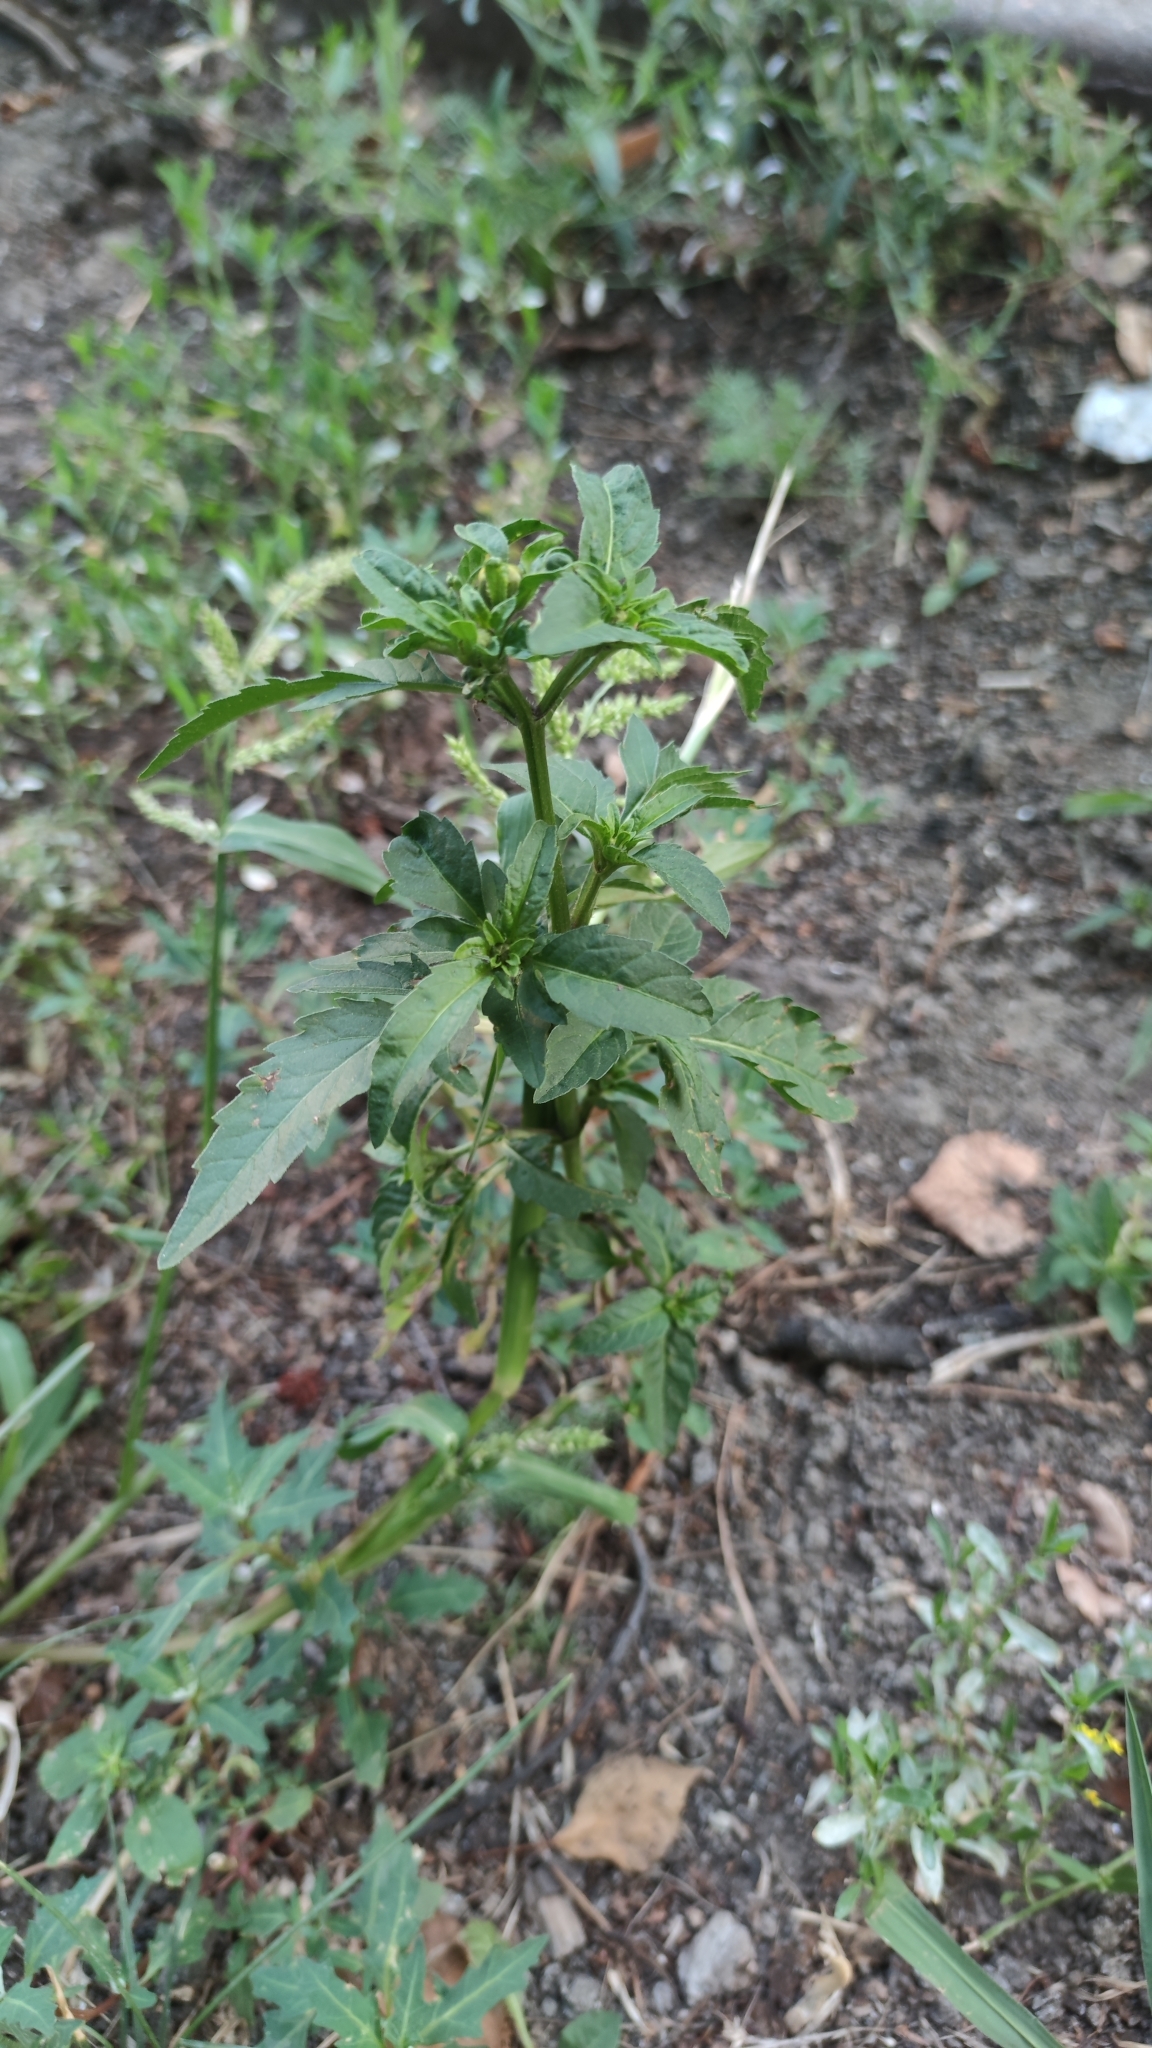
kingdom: Plantae
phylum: Tracheophyta
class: Magnoliopsida
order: Asterales
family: Asteraceae
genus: Bidens
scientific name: Bidens tripartita
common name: Trifid bur-marigold
